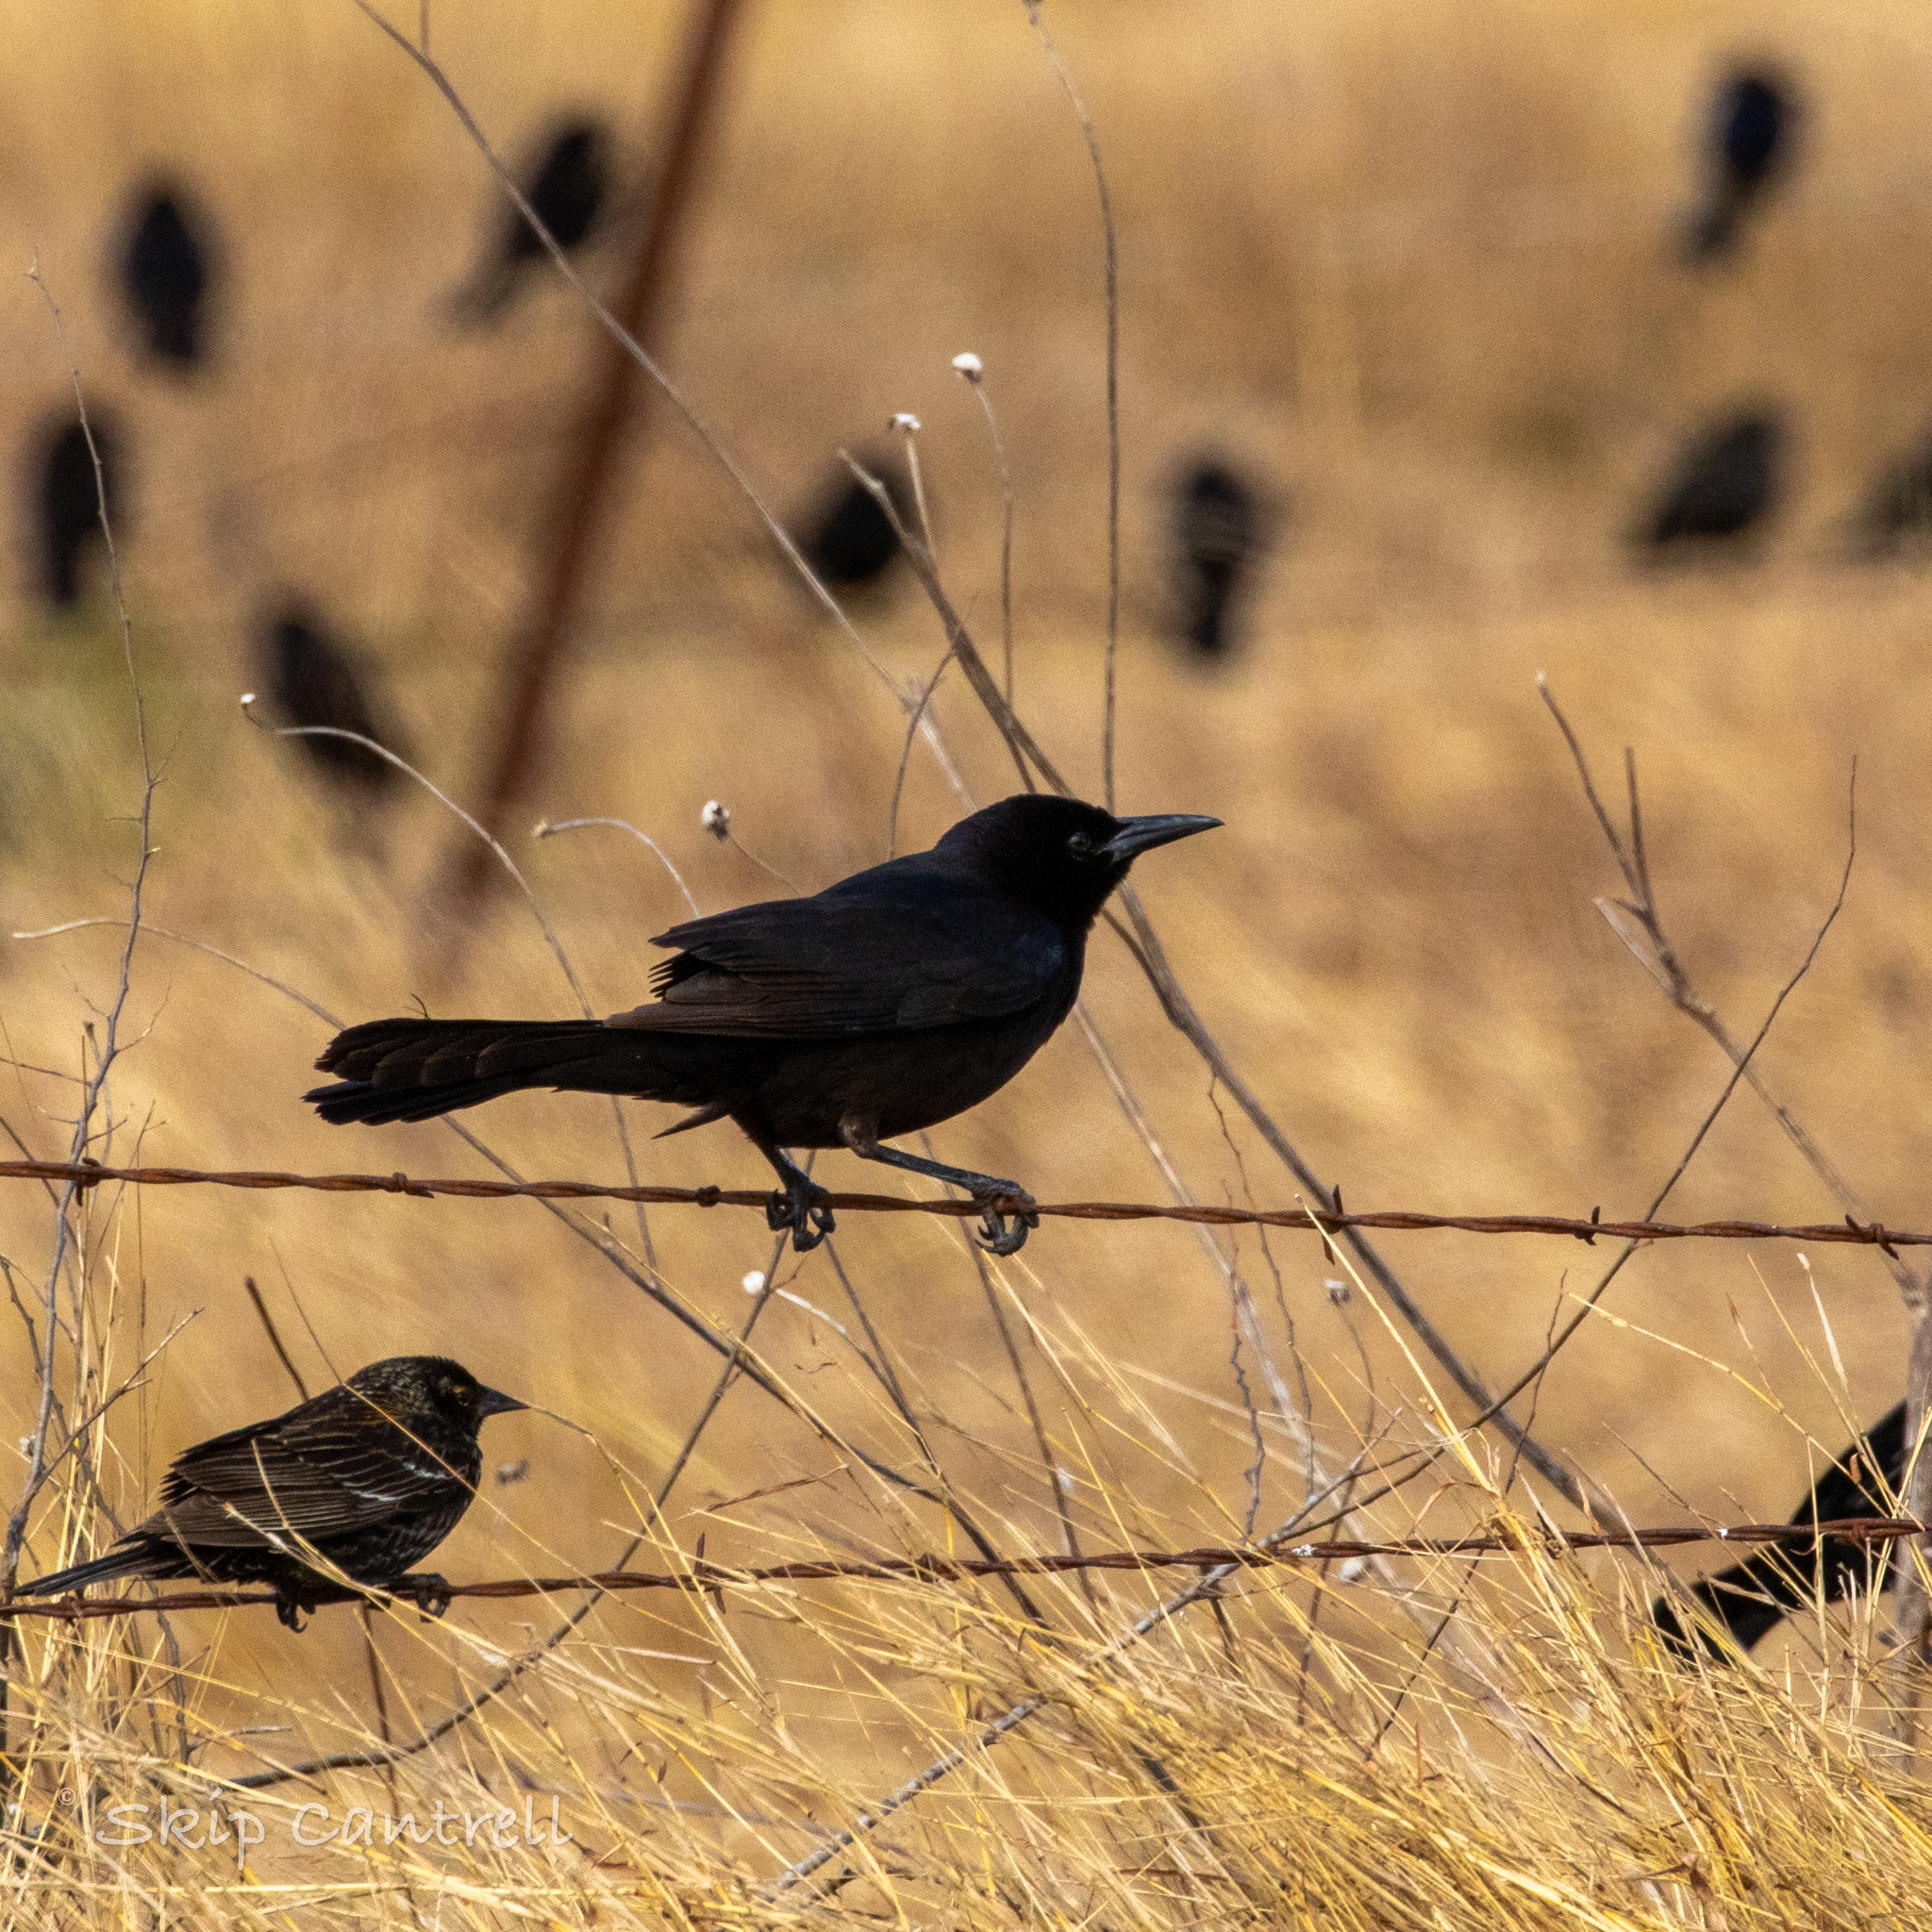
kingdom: Animalia
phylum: Chordata
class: Aves
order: Passeriformes
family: Icteridae
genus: Quiscalus
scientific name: Quiscalus major
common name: Boat-tailed grackle
